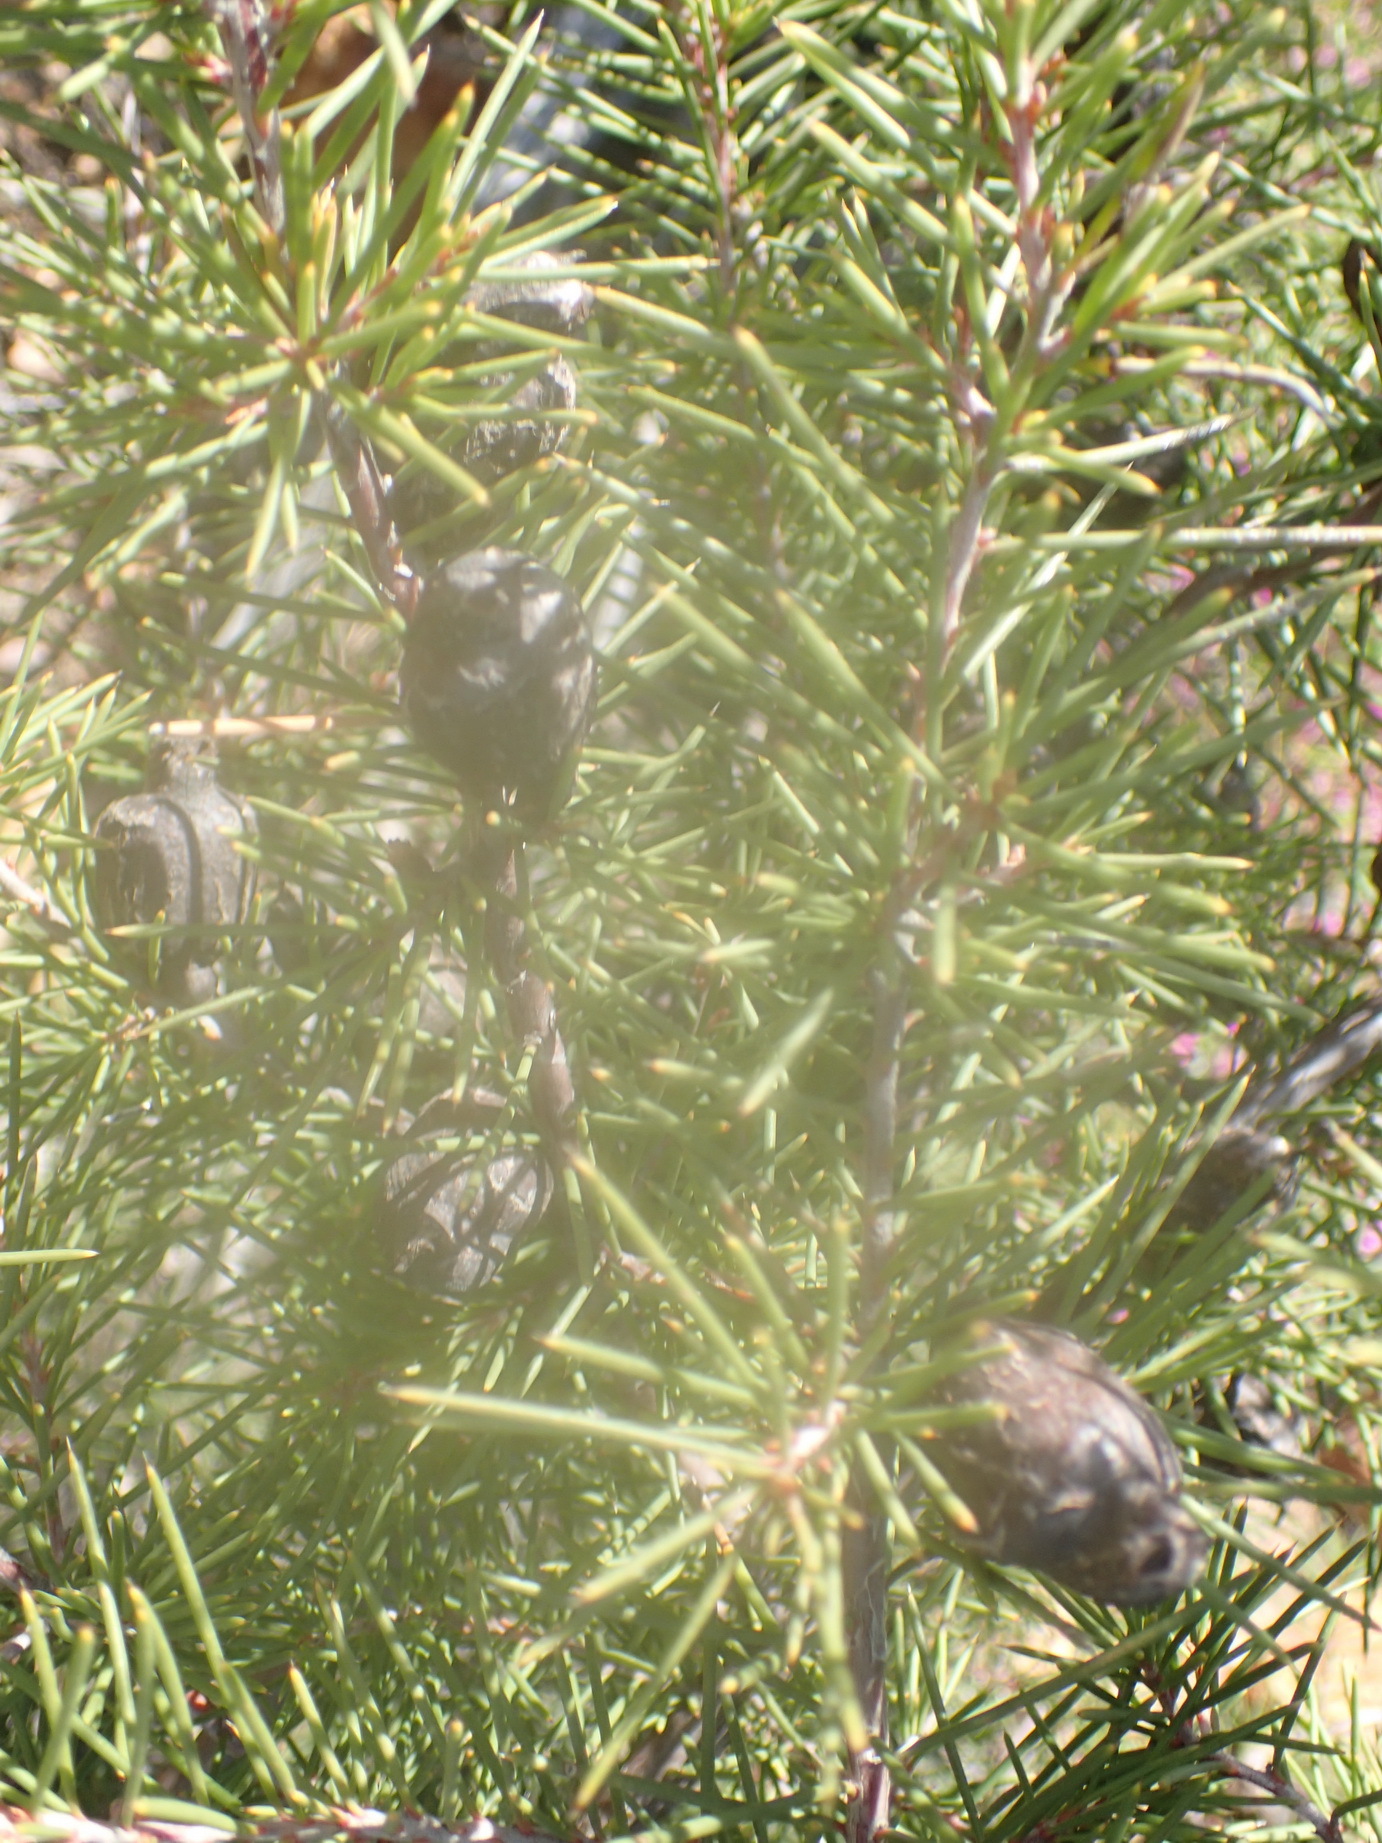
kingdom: Plantae
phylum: Tracheophyta
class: Magnoliopsida
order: Proteales
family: Proteaceae
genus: Hakea
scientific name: Hakea sericea
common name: Needle bush
